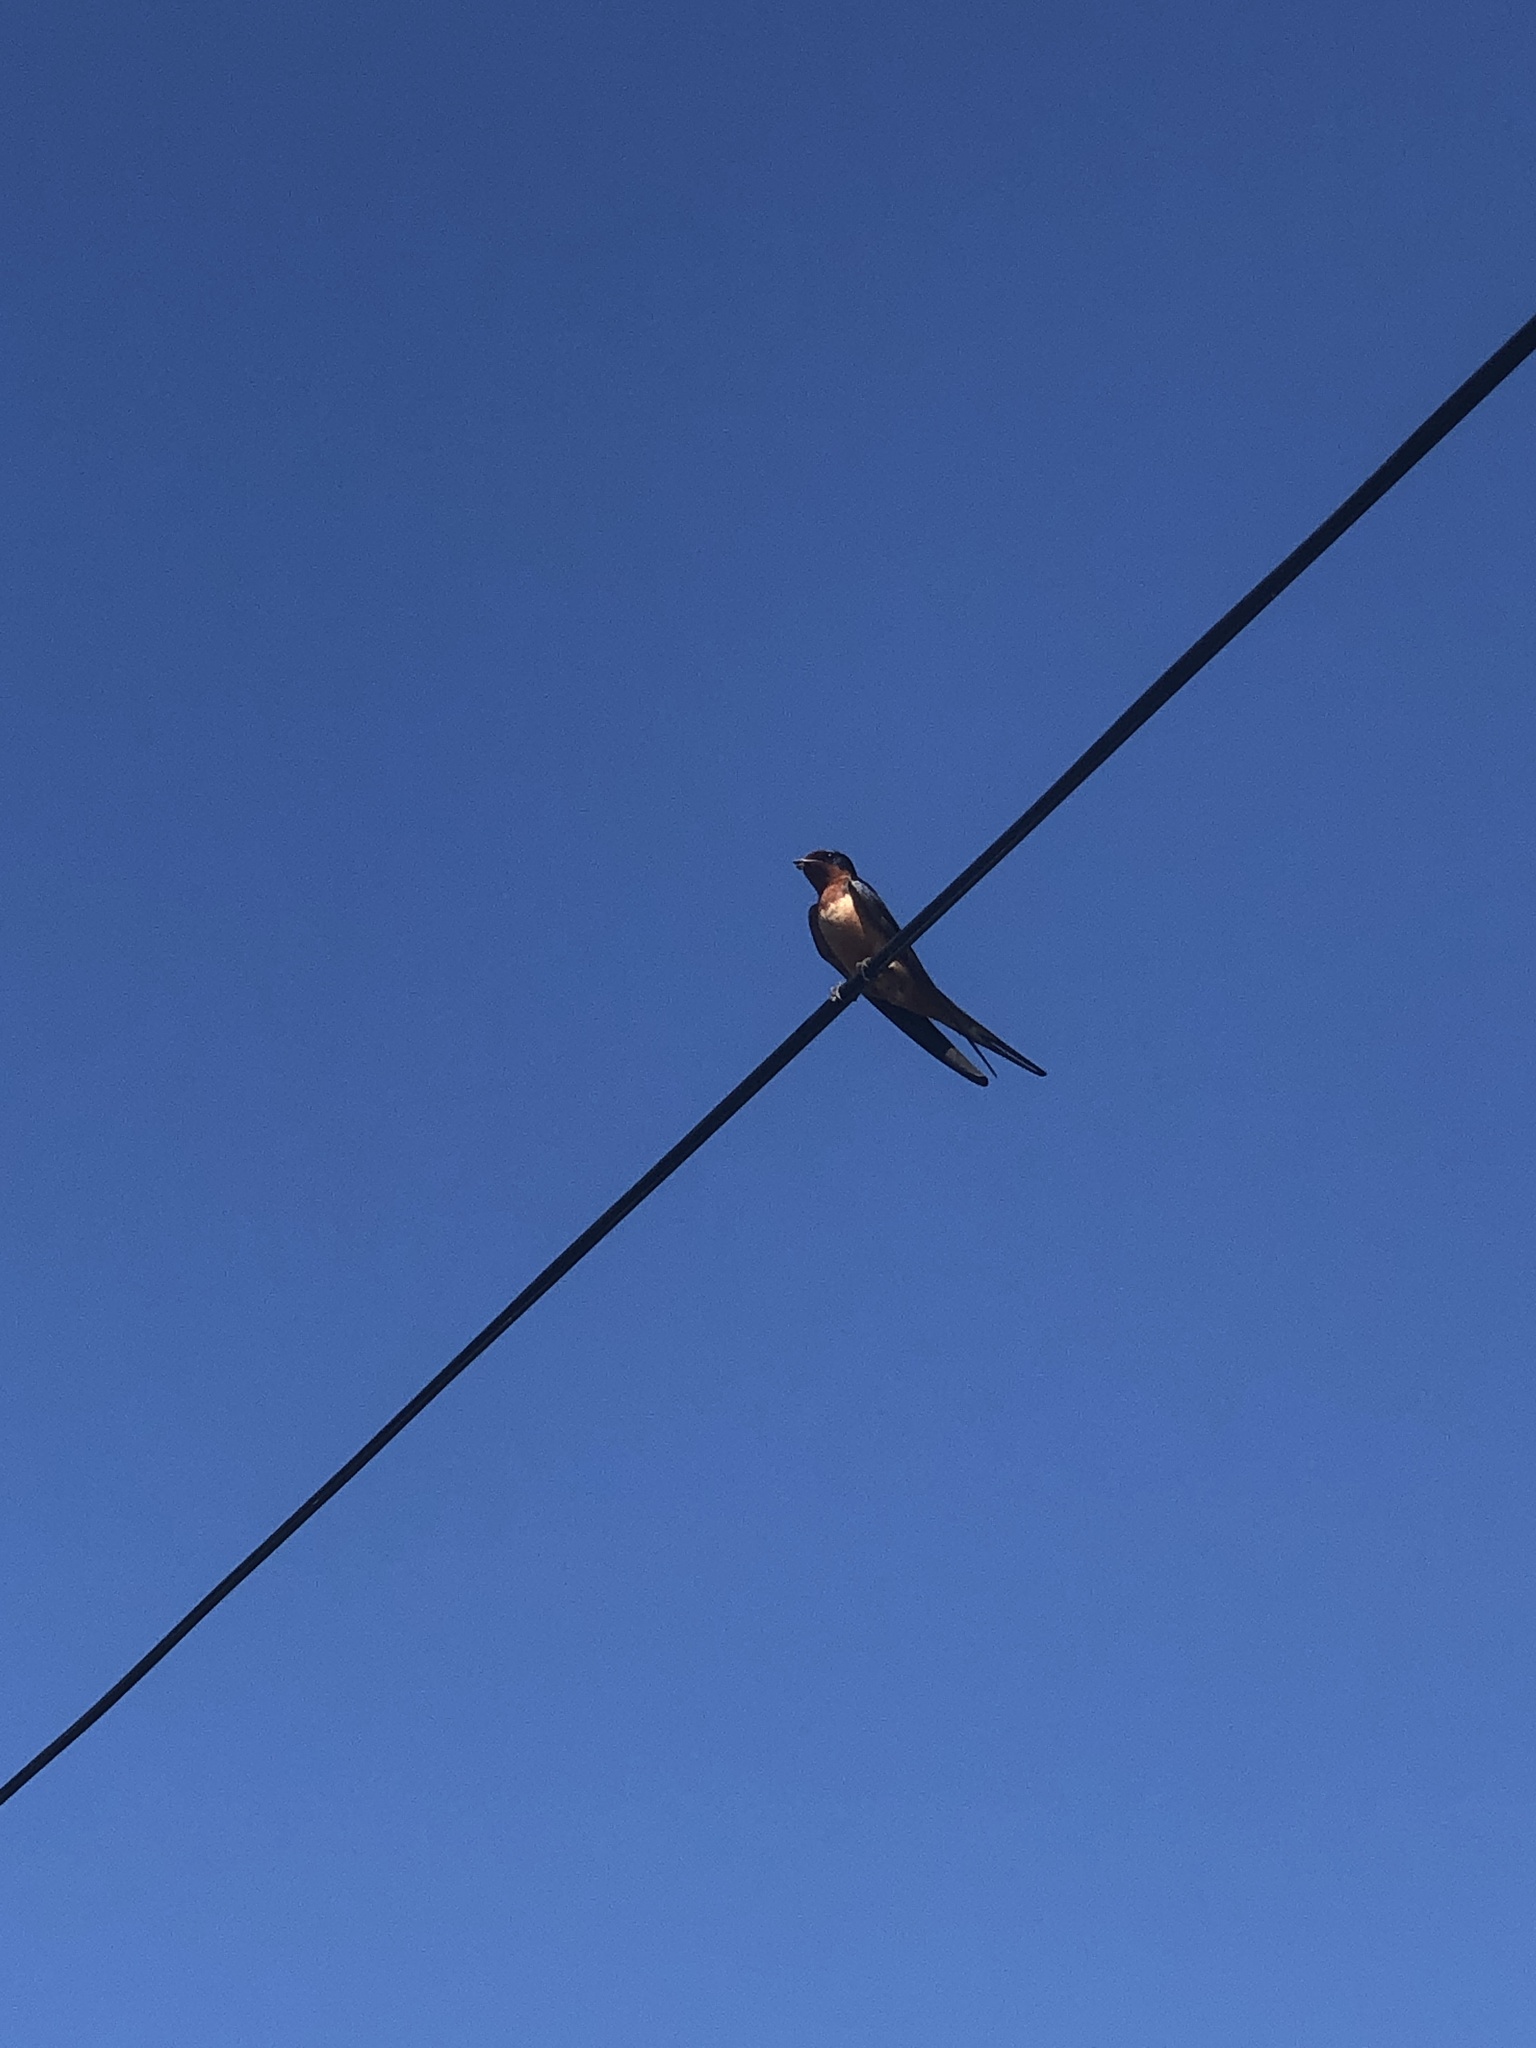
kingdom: Animalia
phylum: Chordata
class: Aves
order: Passeriformes
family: Hirundinidae
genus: Hirundo
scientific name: Hirundo rustica
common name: Barn swallow
